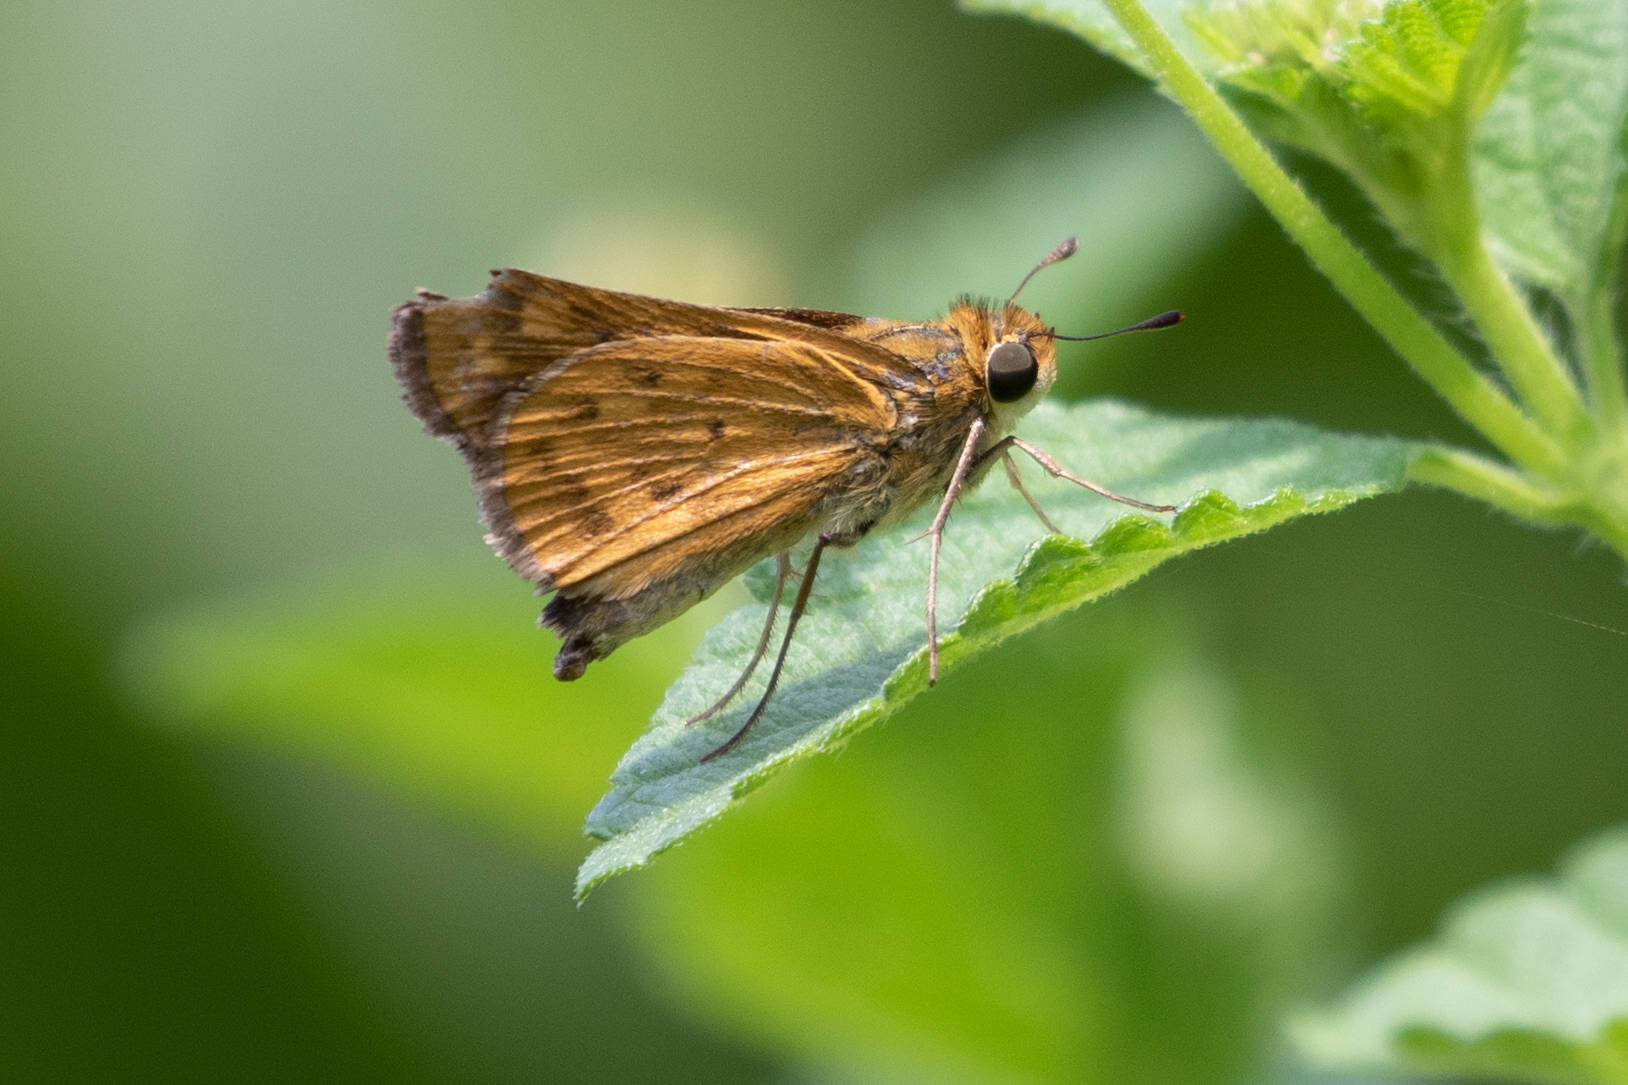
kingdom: Animalia
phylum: Arthropoda
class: Insecta
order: Lepidoptera
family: Hesperiidae
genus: Hylephila
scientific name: Hylephila phyleus
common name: Fiery skipper
